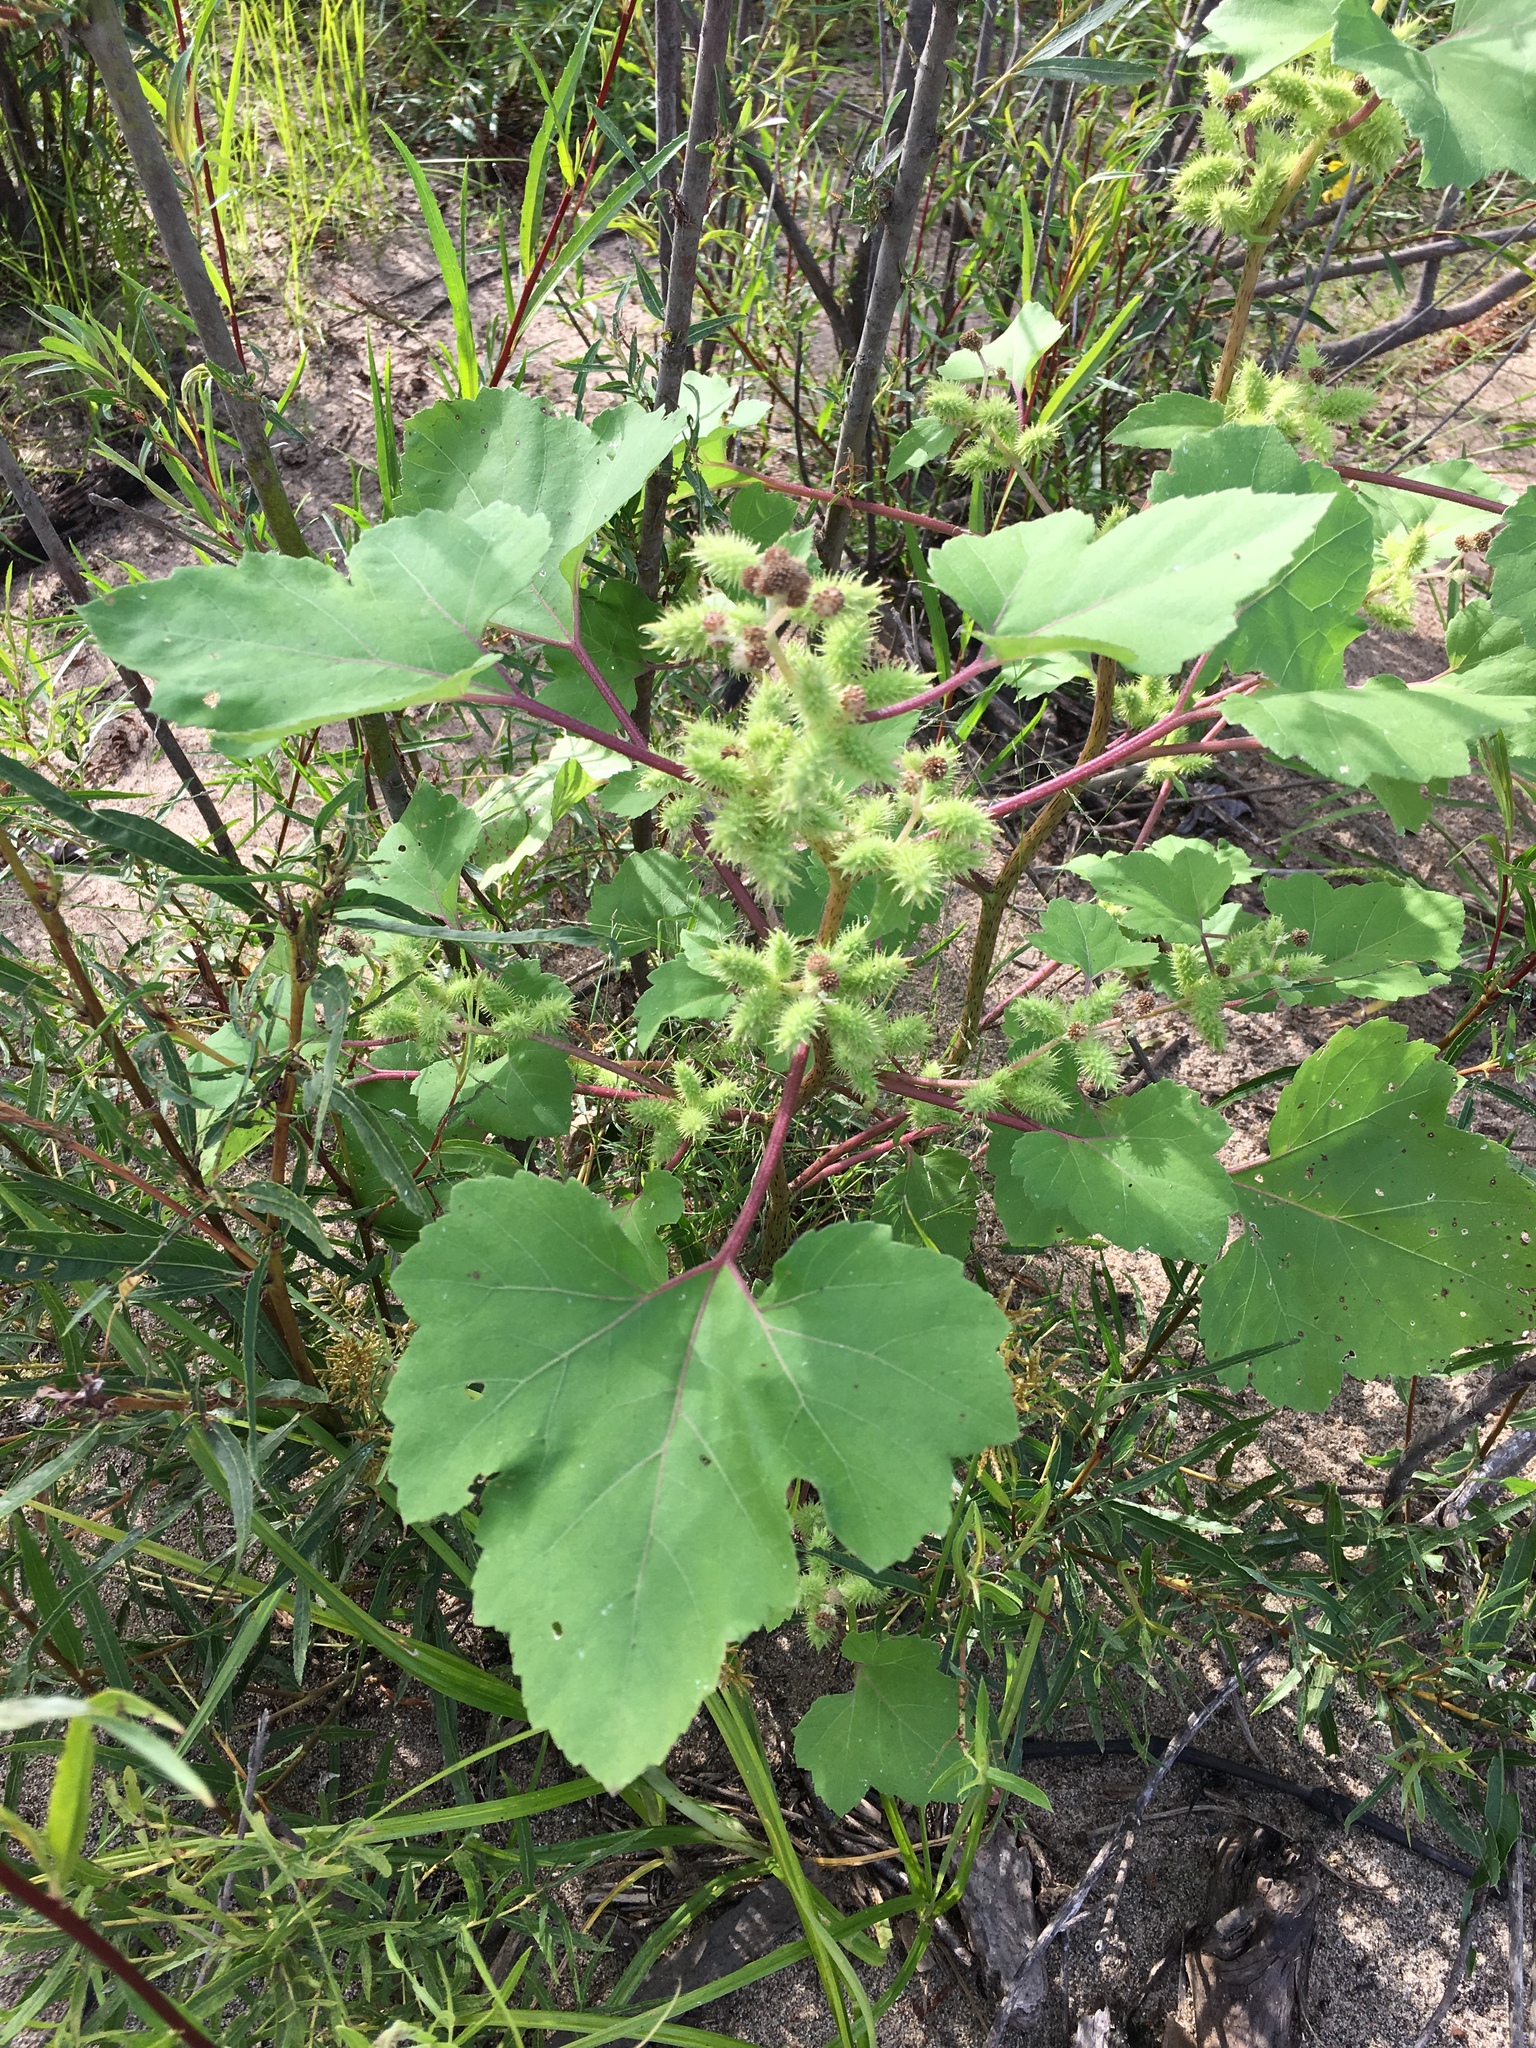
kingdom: Plantae
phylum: Tracheophyta
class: Magnoliopsida
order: Asterales
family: Asteraceae
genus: Xanthium
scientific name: Xanthium strumarium
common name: Rough cocklebur
